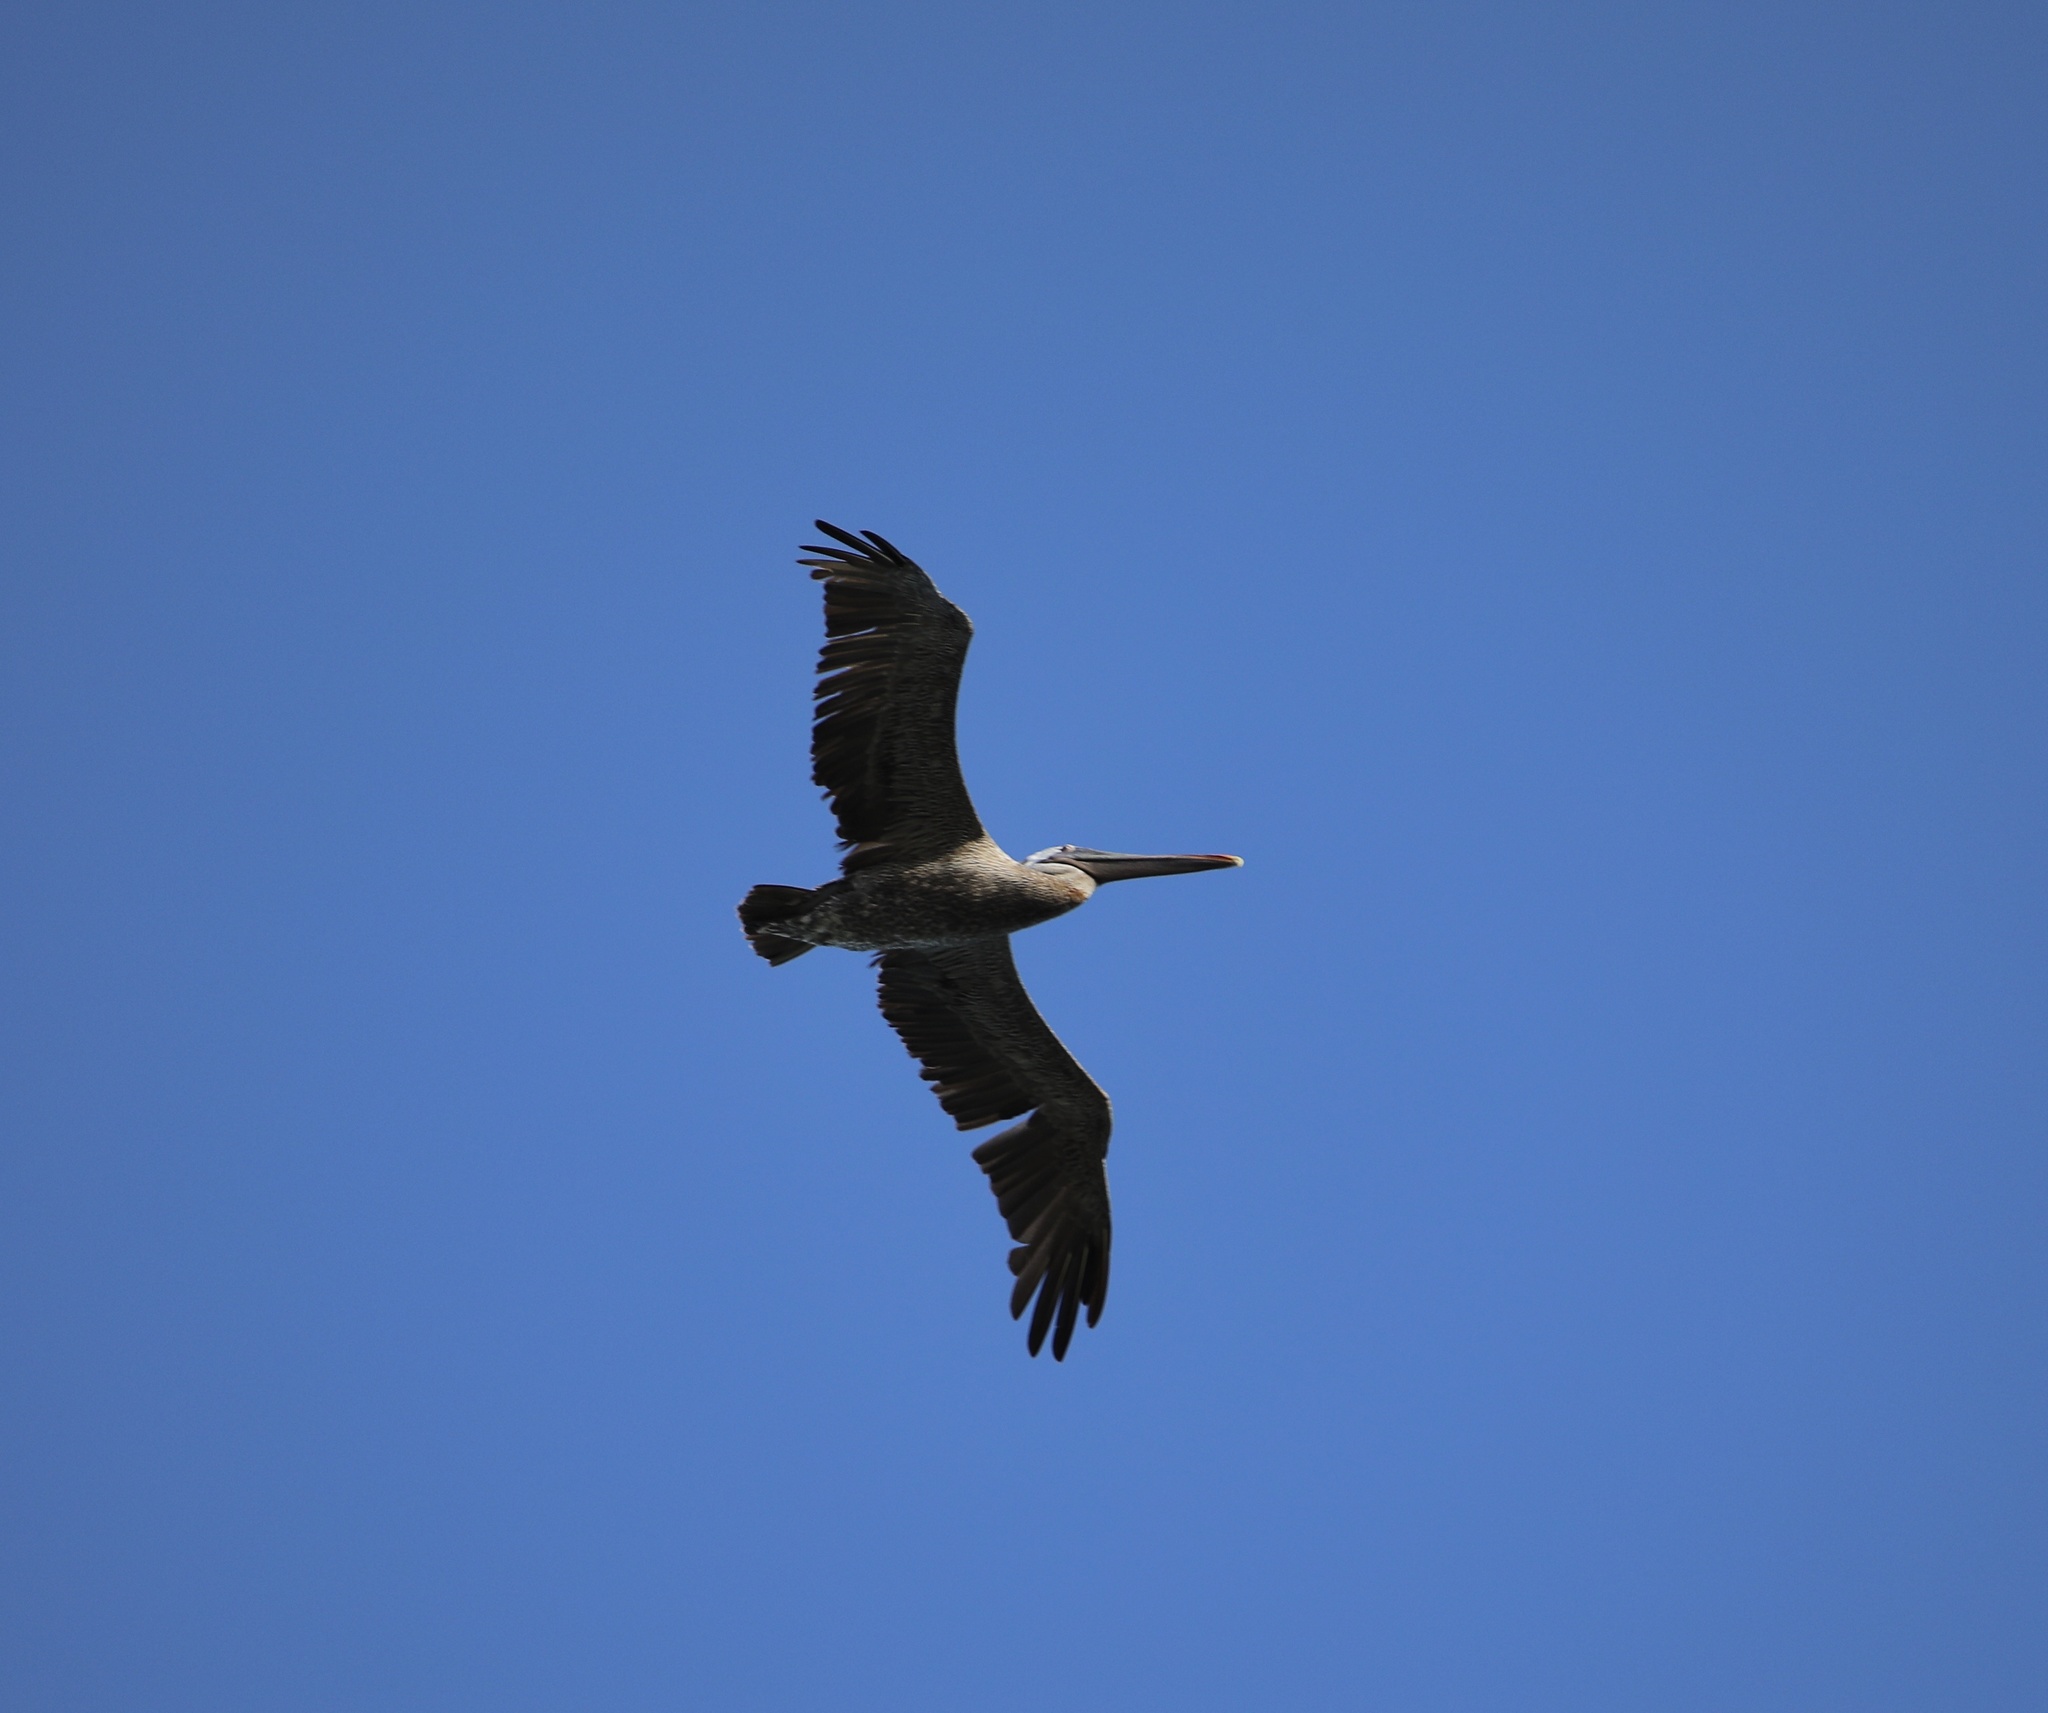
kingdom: Animalia
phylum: Chordata
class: Aves
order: Pelecaniformes
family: Pelecanidae
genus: Pelecanus
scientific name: Pelecanus occidentalis
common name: Brown pelican
